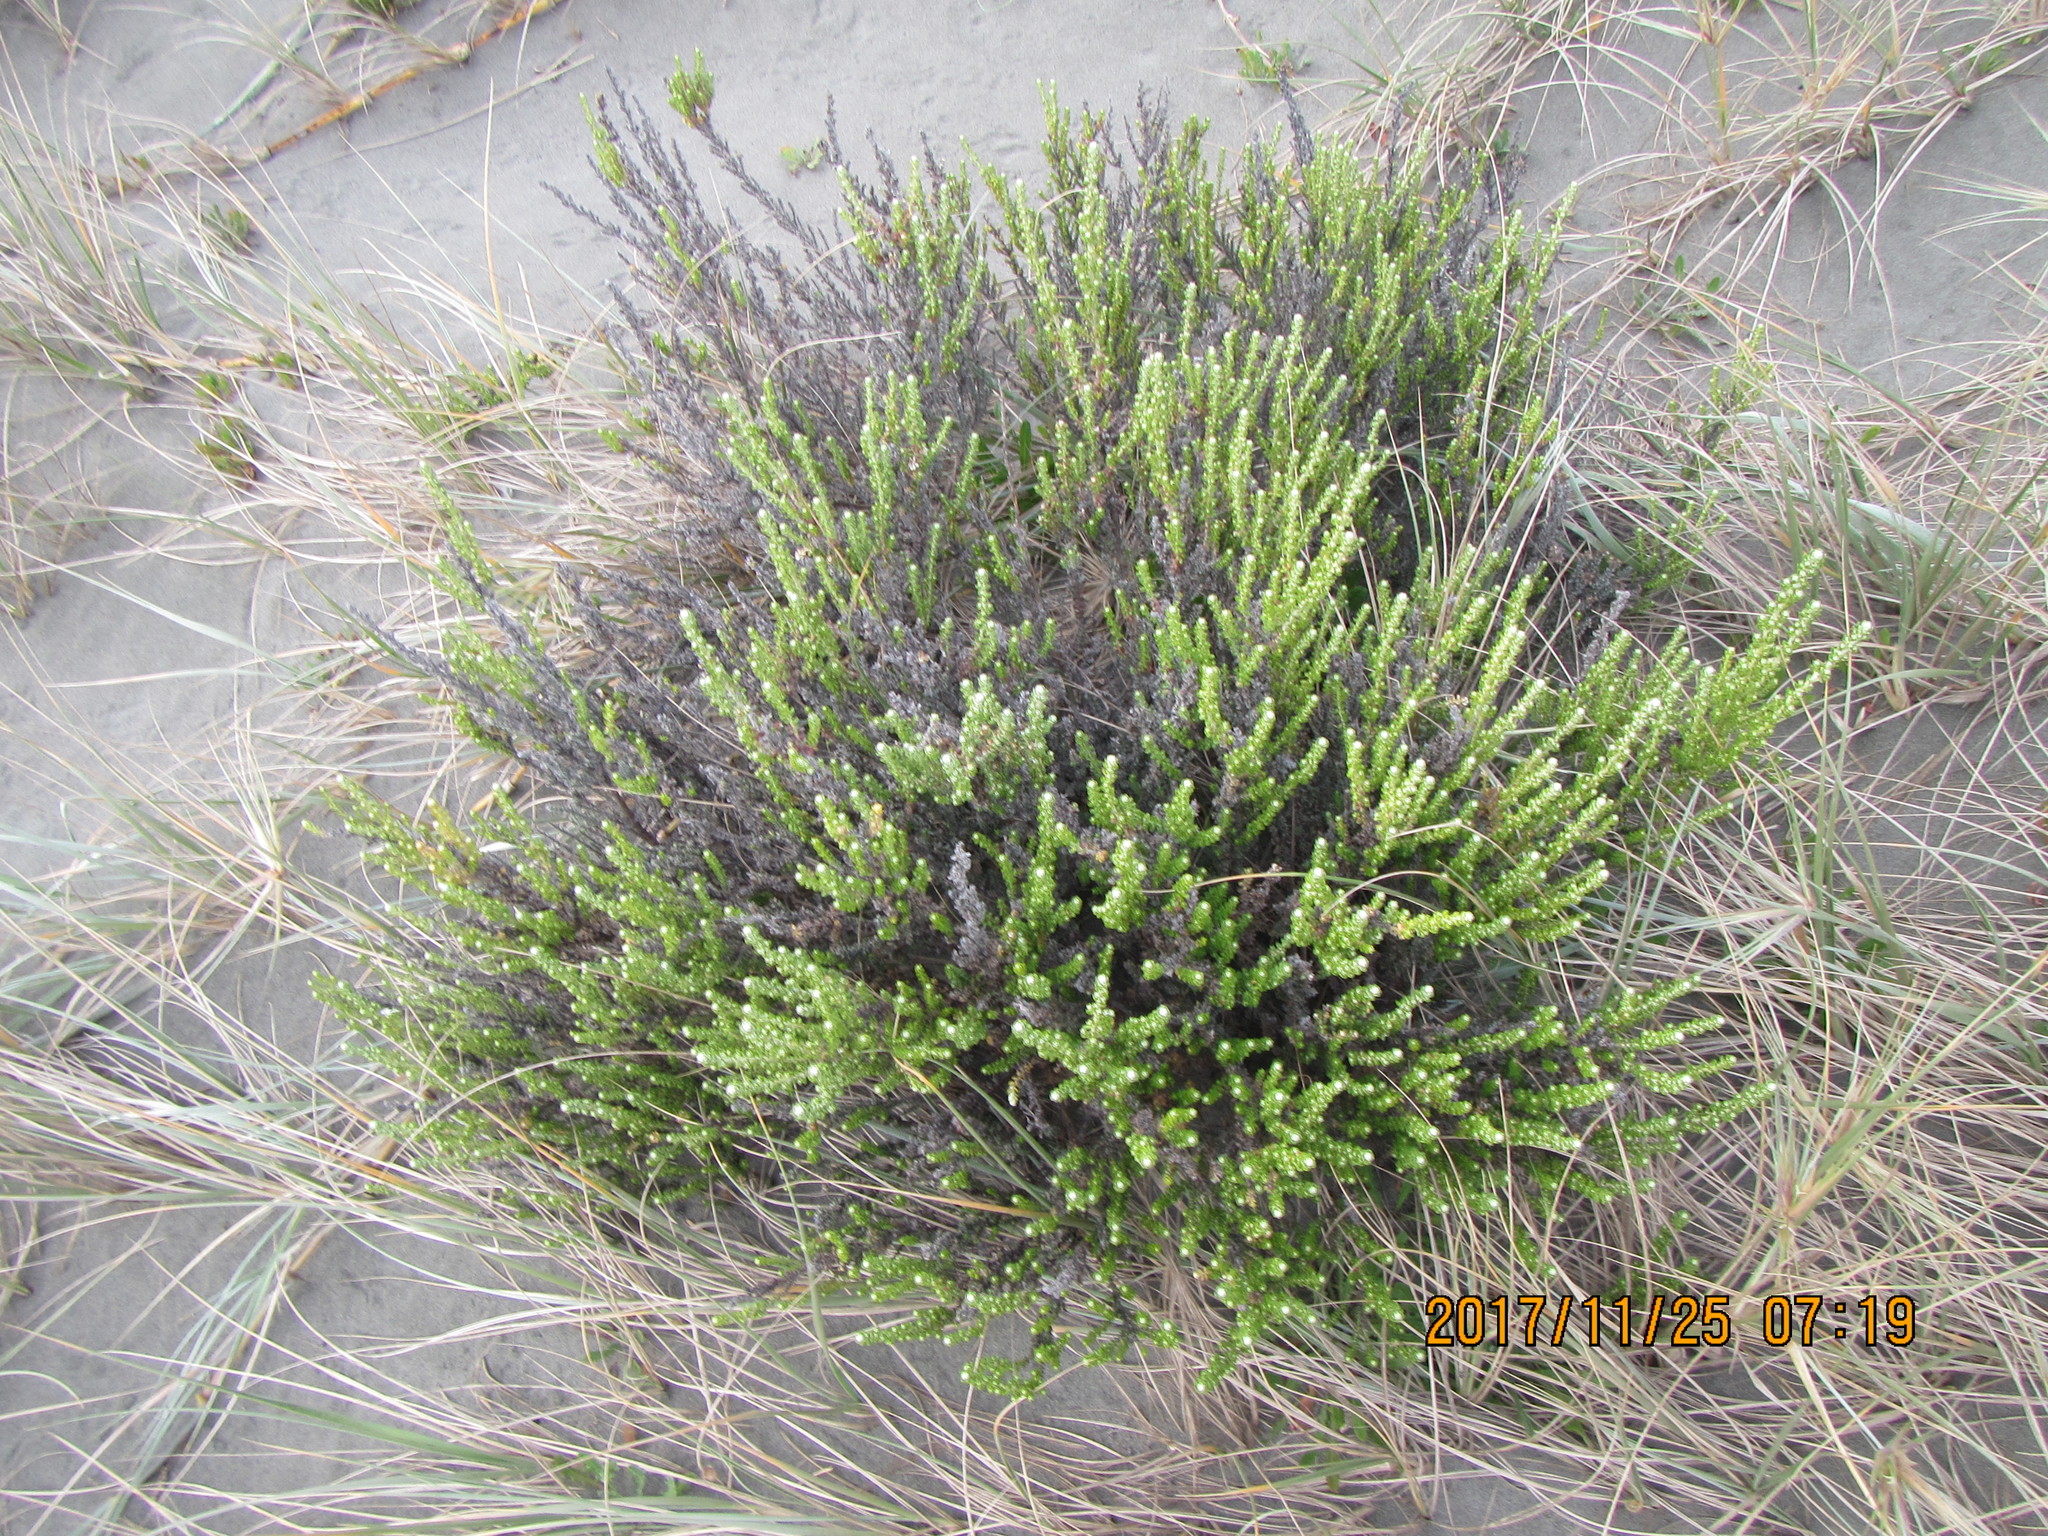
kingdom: Plantae
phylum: Tracheophyta
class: Magnoliopsida
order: Asterales
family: Asteraceae
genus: Ozothamnus
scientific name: Ozothamnus leptophyllus
